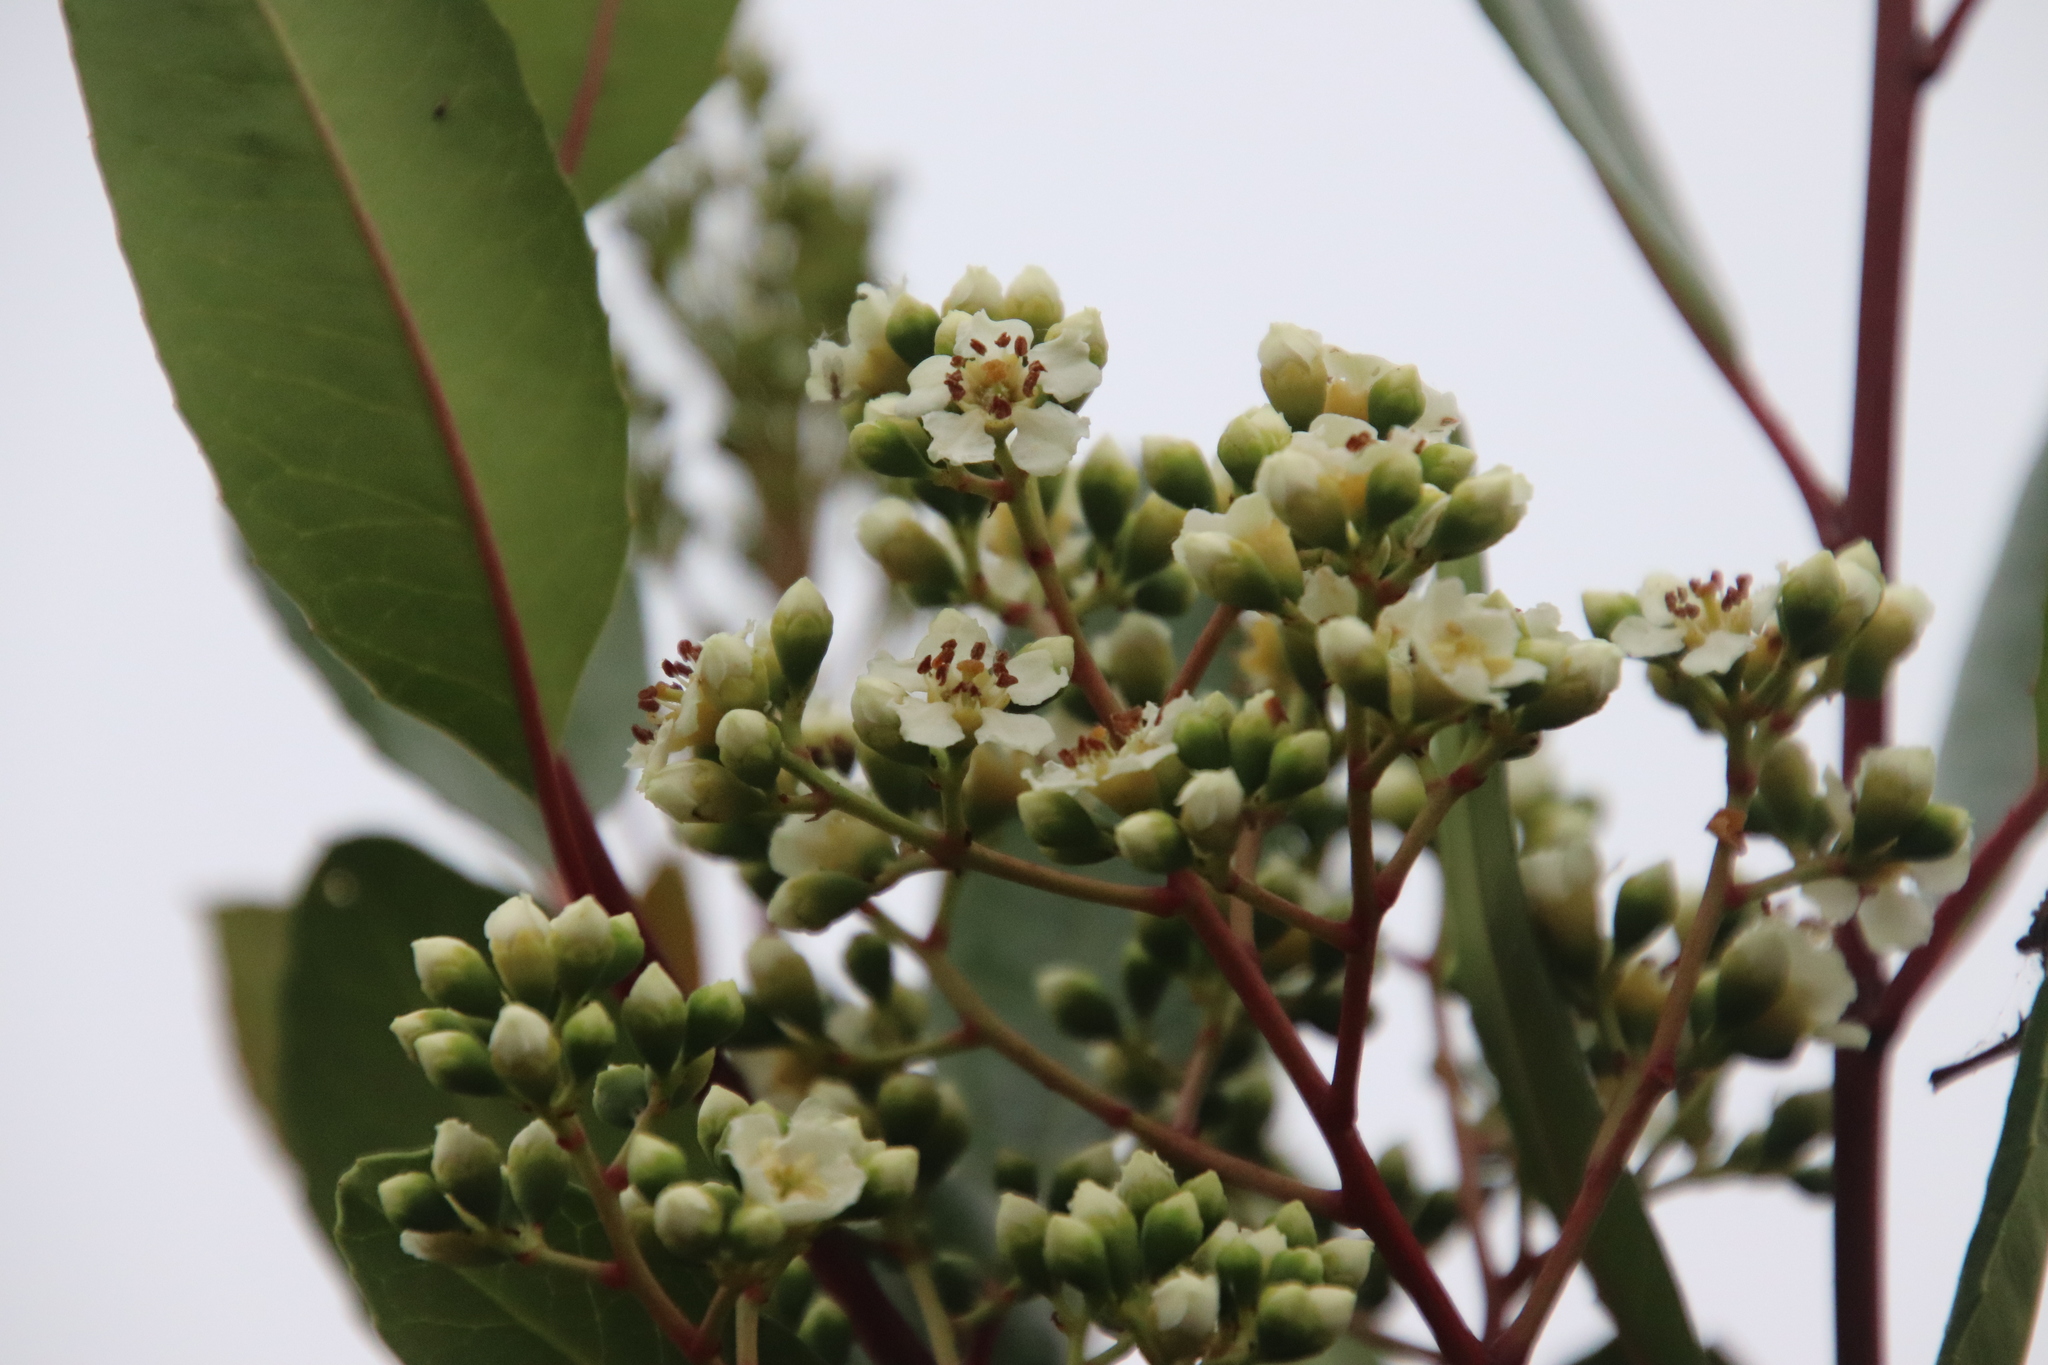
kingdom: Plantae
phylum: Tracheophyta
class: Magnoliopsida
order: Rosales
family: Rosaceae
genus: Heteromeles
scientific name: Heteromeles arbutifolia
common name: California-holly
